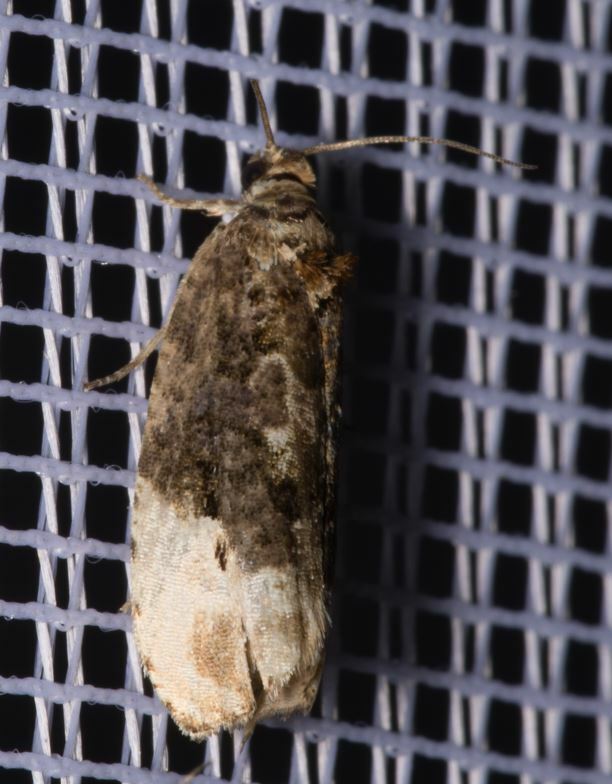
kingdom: Animalia
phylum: Arthropoda
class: Insecta
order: Lepidoptera
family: Tortricidae
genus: Hedya
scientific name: Hedya nubiferana
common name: Marbled orchard tortrix
